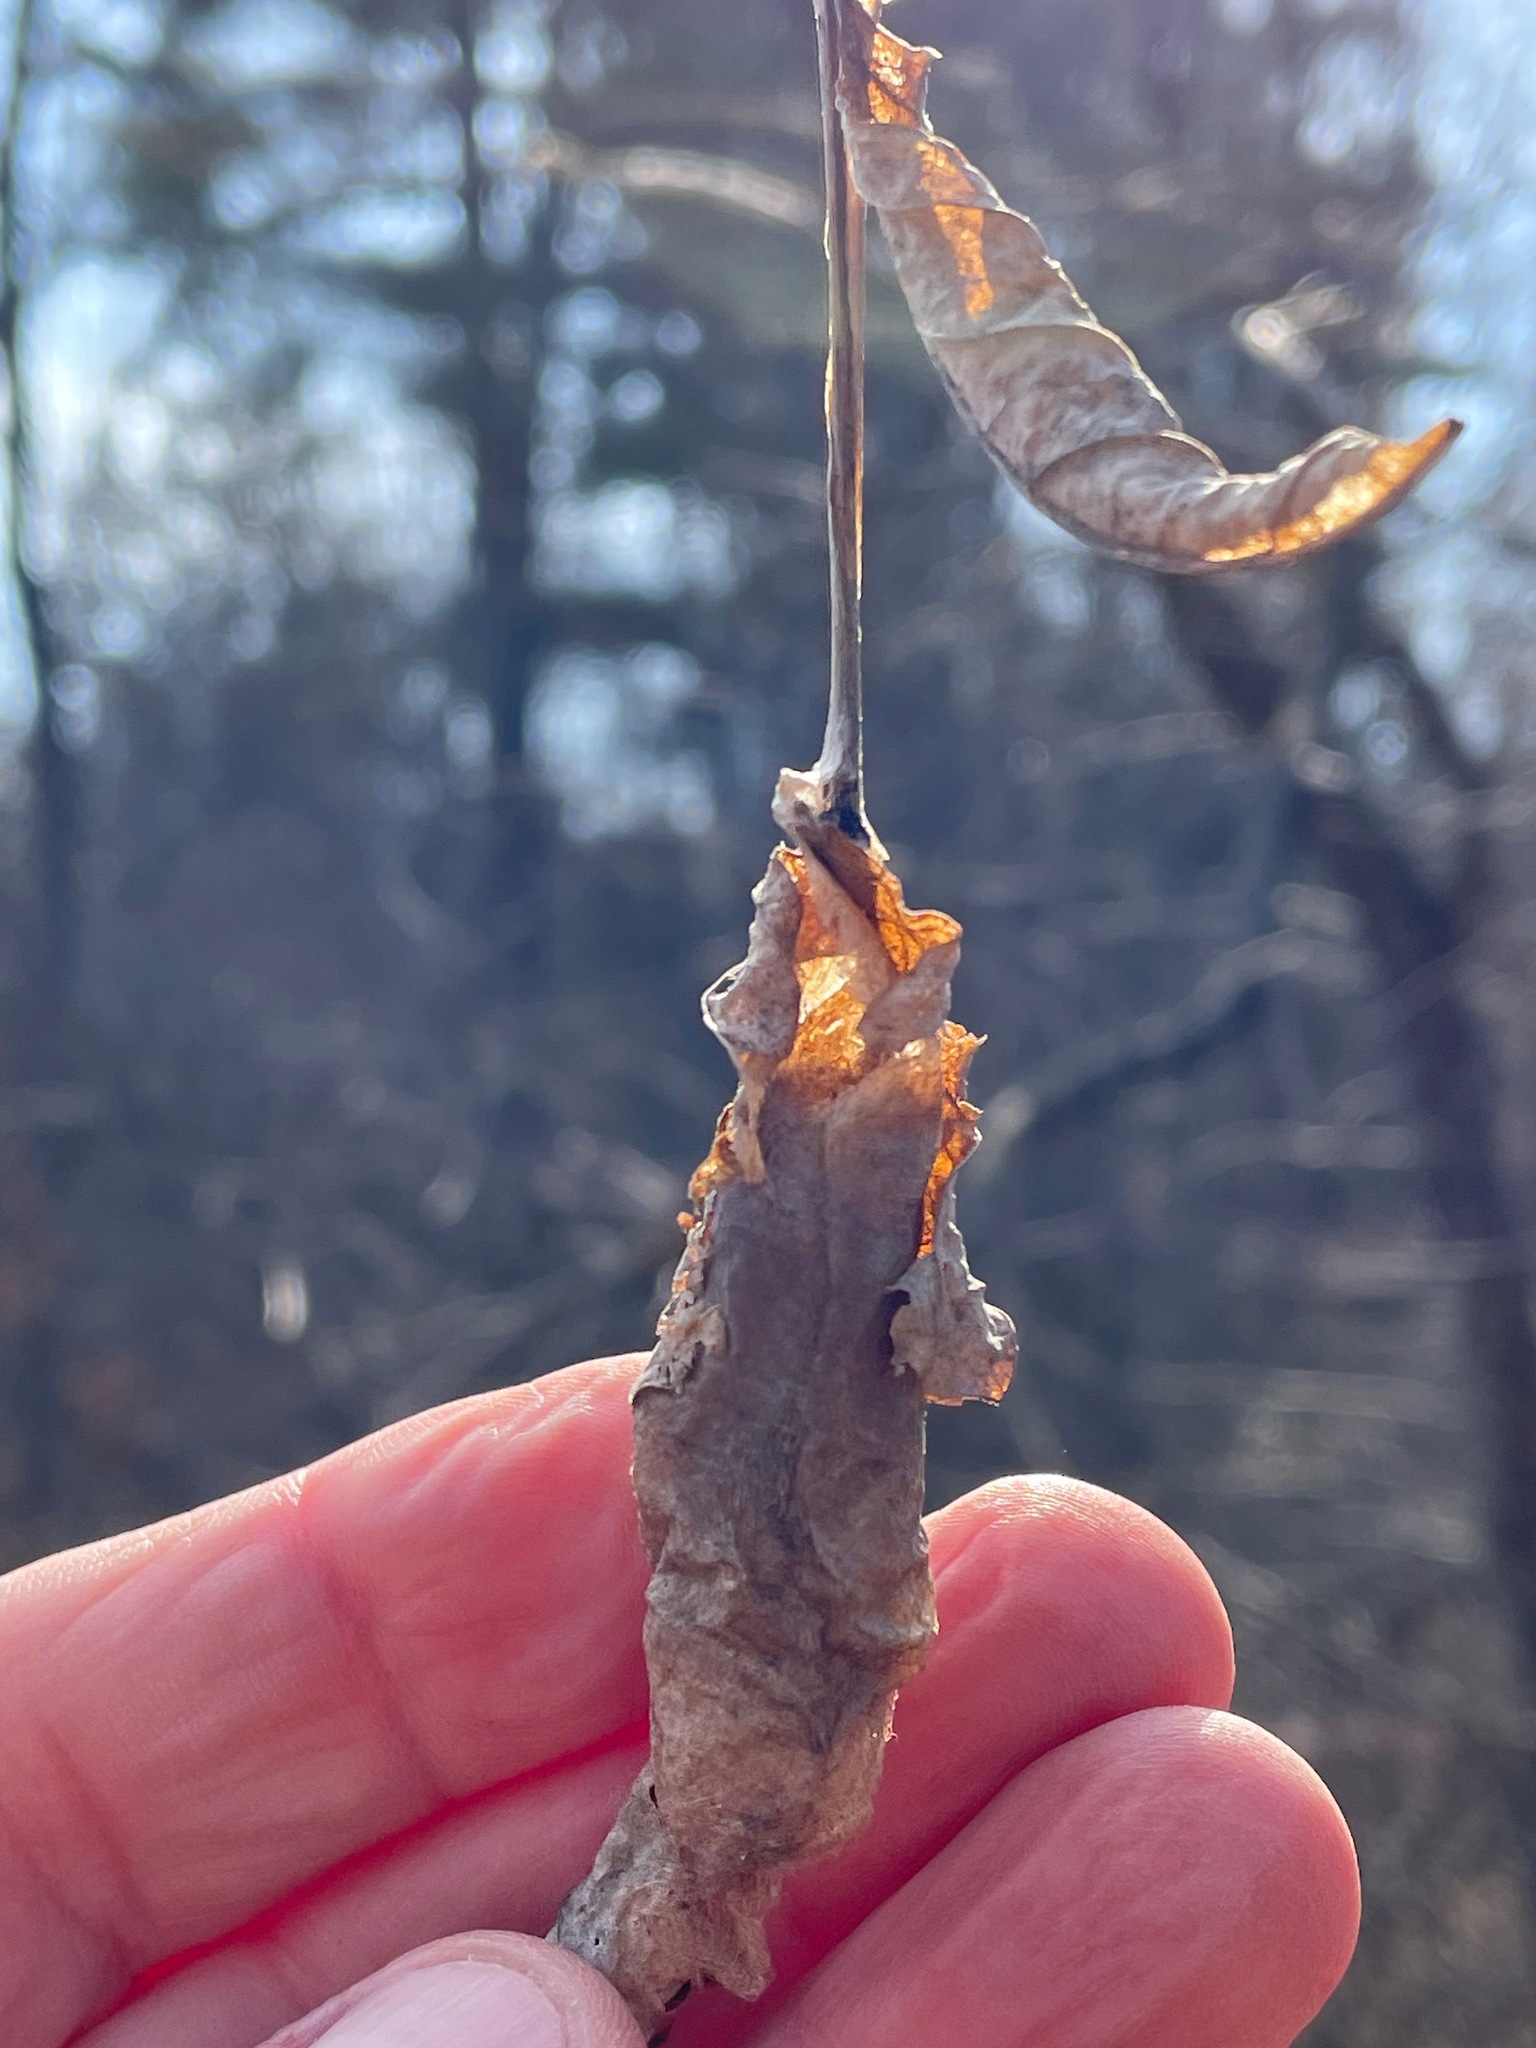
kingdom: Animalia
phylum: Arthropoda
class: Insecta
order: Lepidoptera
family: Saturniidae
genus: Callosamia
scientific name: Callosamia promethea
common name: Promethea silkmoth
